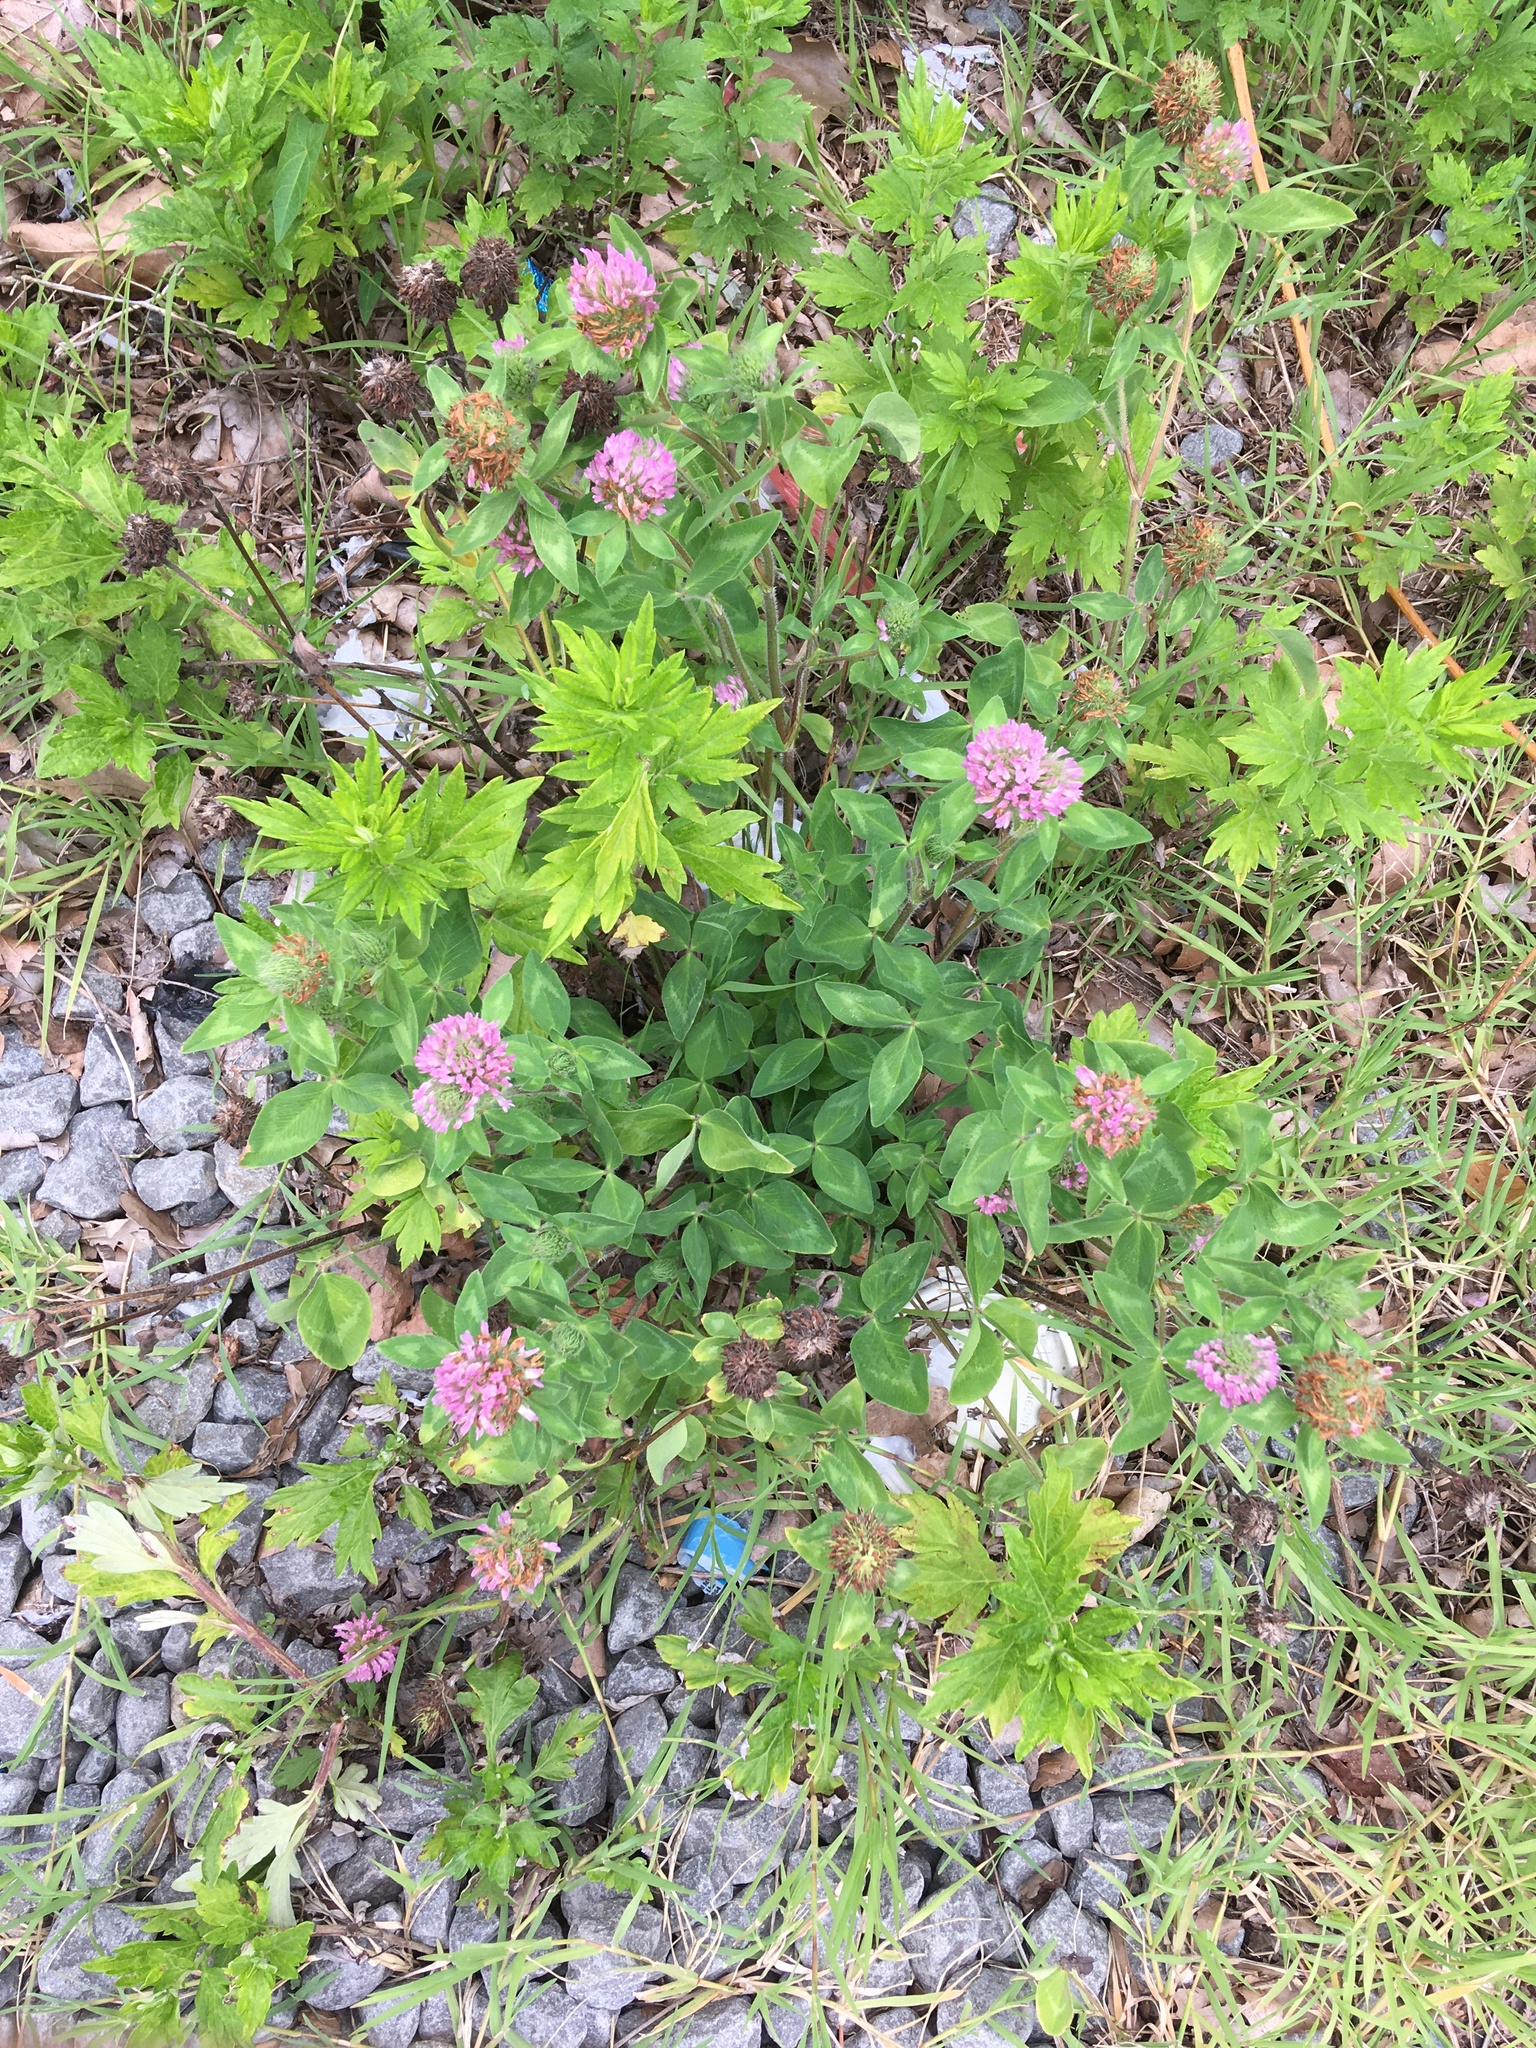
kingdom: Plantae
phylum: Tracheophyta
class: Magnoliopsida
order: Fabales
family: Fabaceae
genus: Trifolium
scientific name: Trifolium pratense
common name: Red clover
